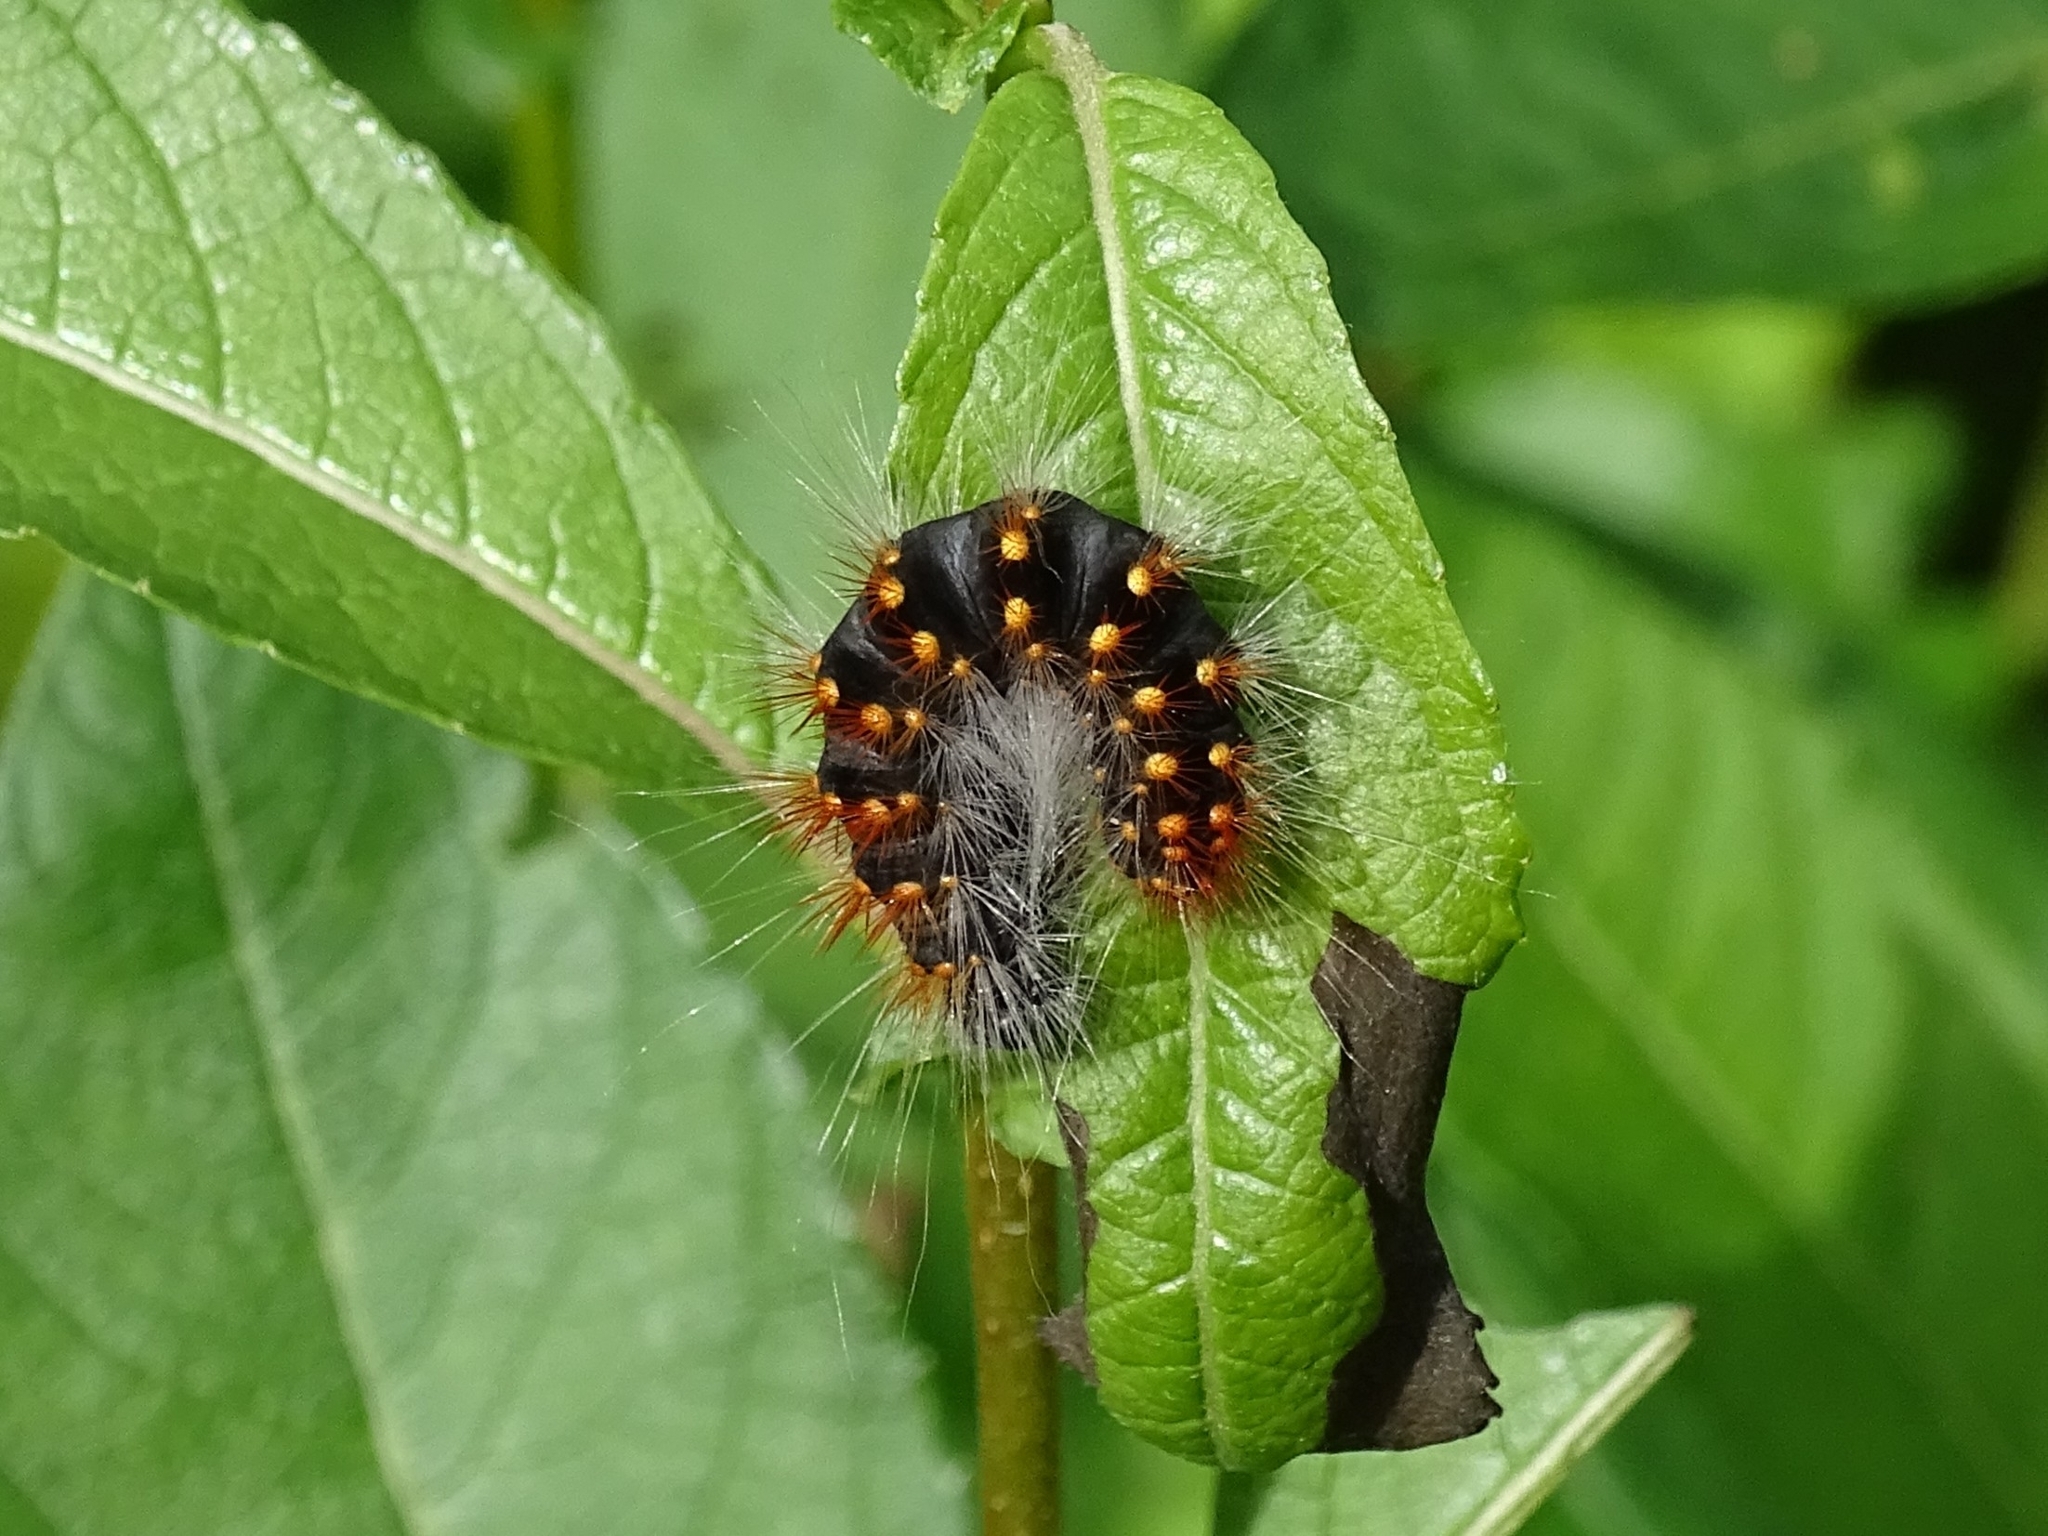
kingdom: Animalia
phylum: Arthropoda
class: Insecta
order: Lepidoptera
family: Noctuidae
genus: Acronicta
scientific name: Acronicta auricoma
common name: Scarce dagger
